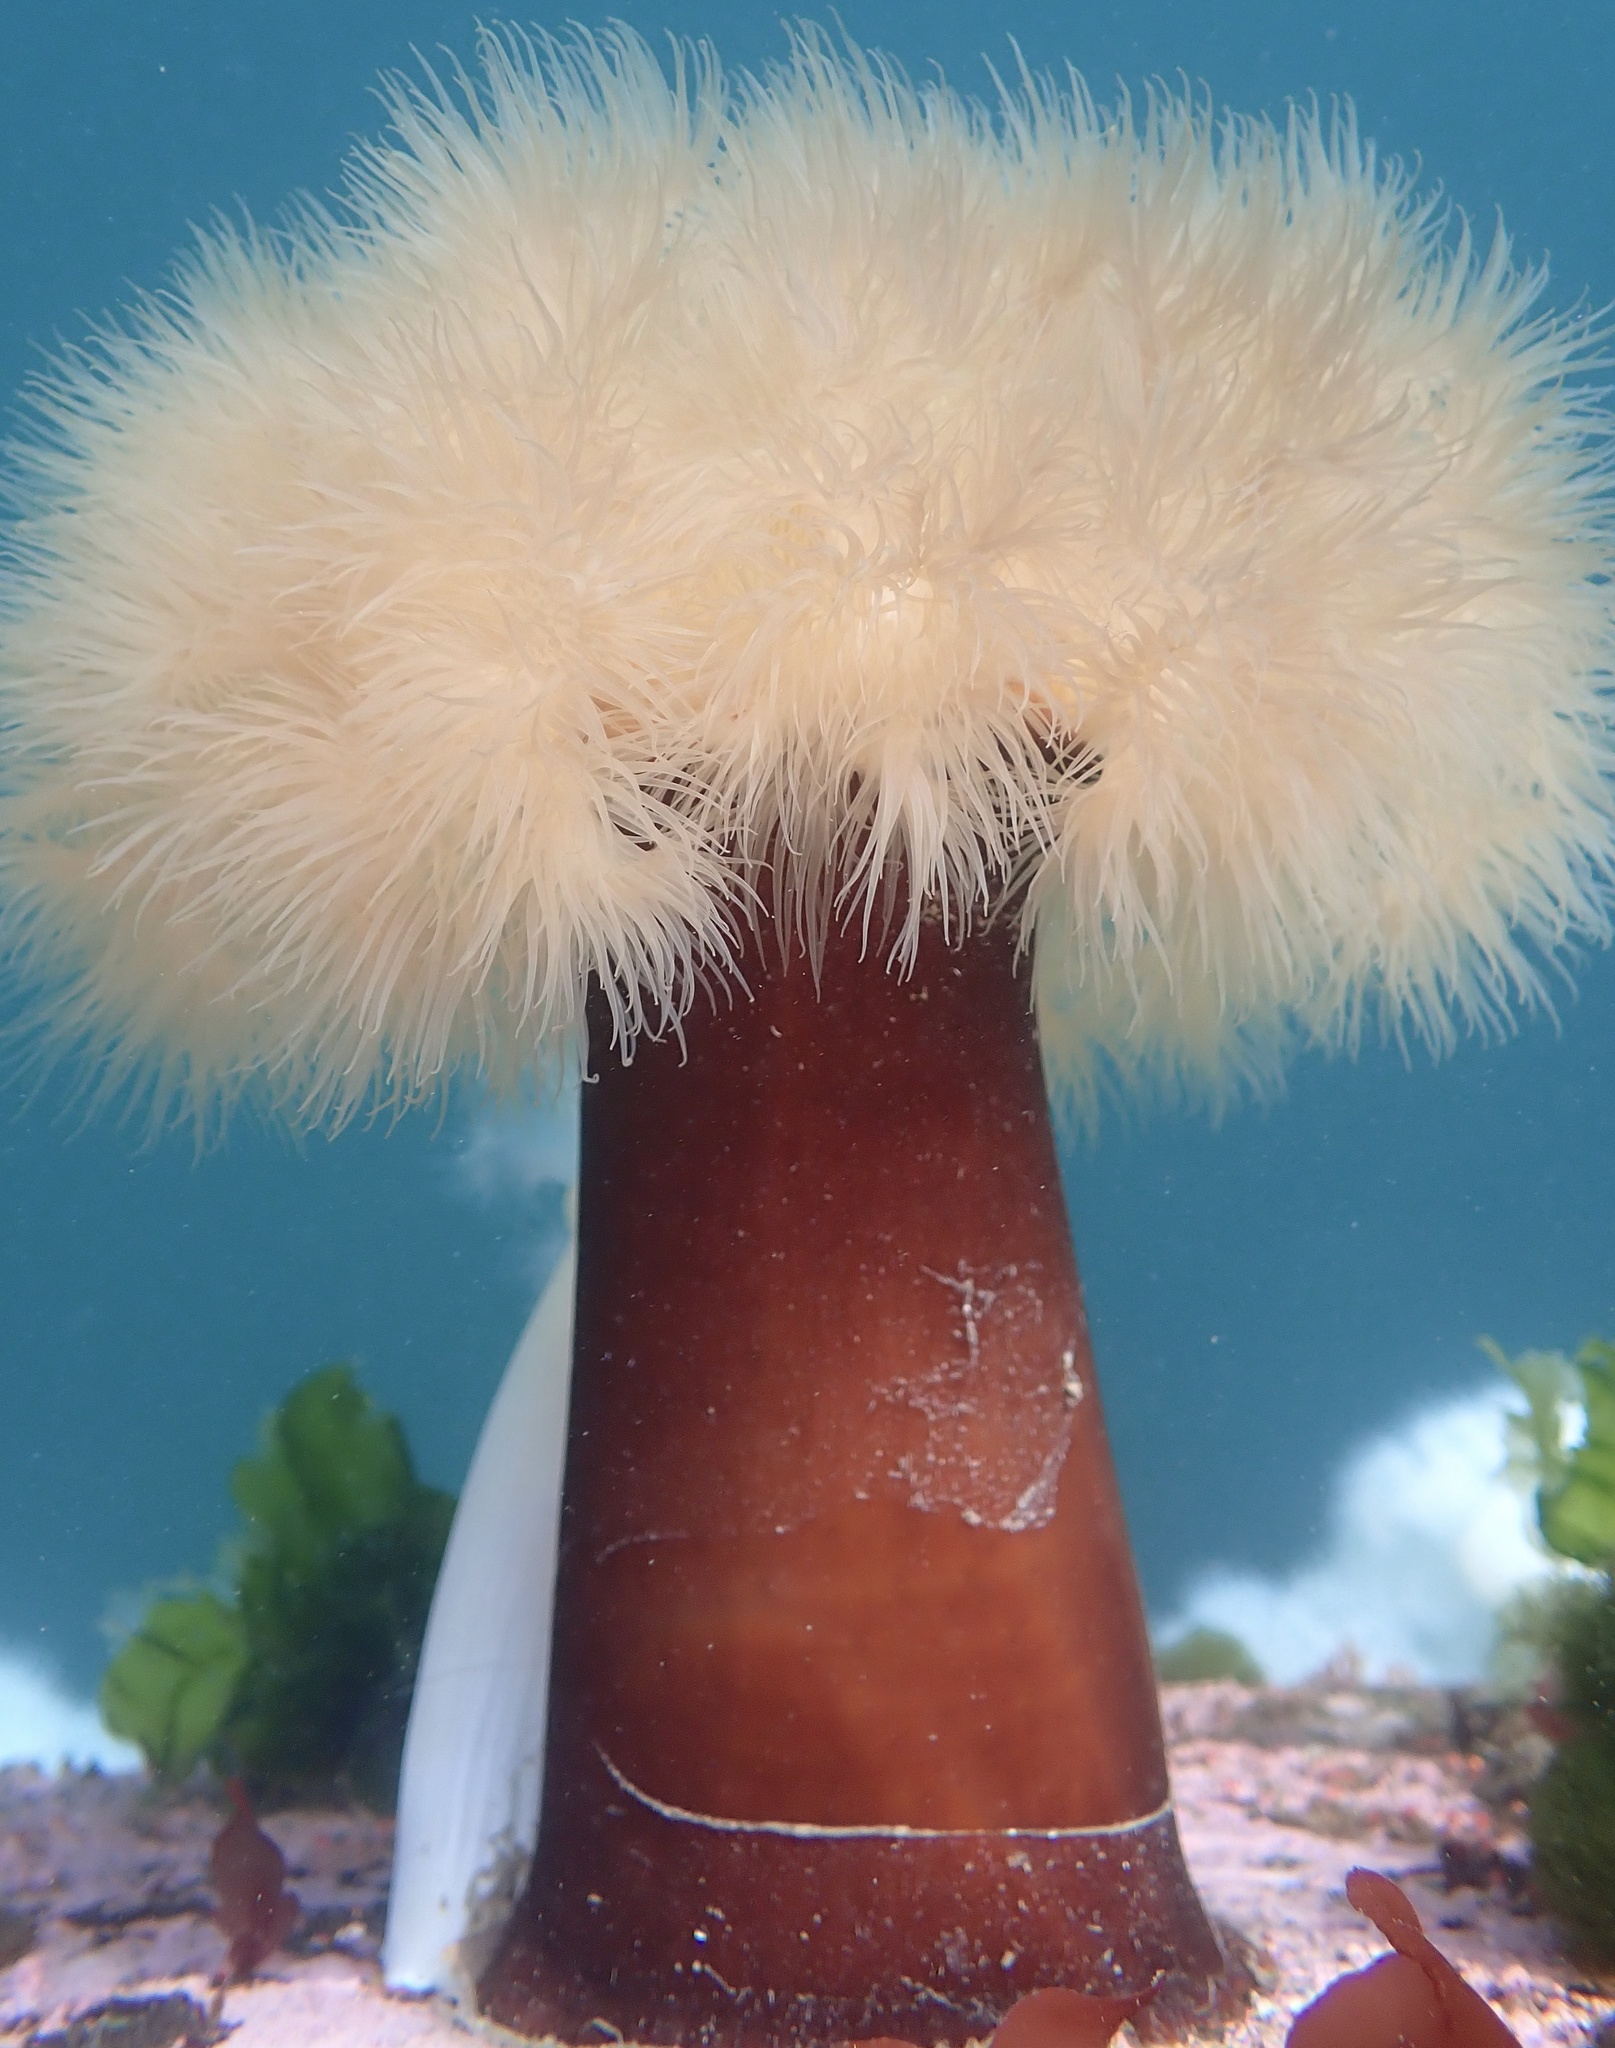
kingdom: Animalia
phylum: Cnidaria
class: Anthozoa
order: Actiniaria
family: Metridiidae
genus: Metridium
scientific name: Metridium farcimen
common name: Gigantic anemone
